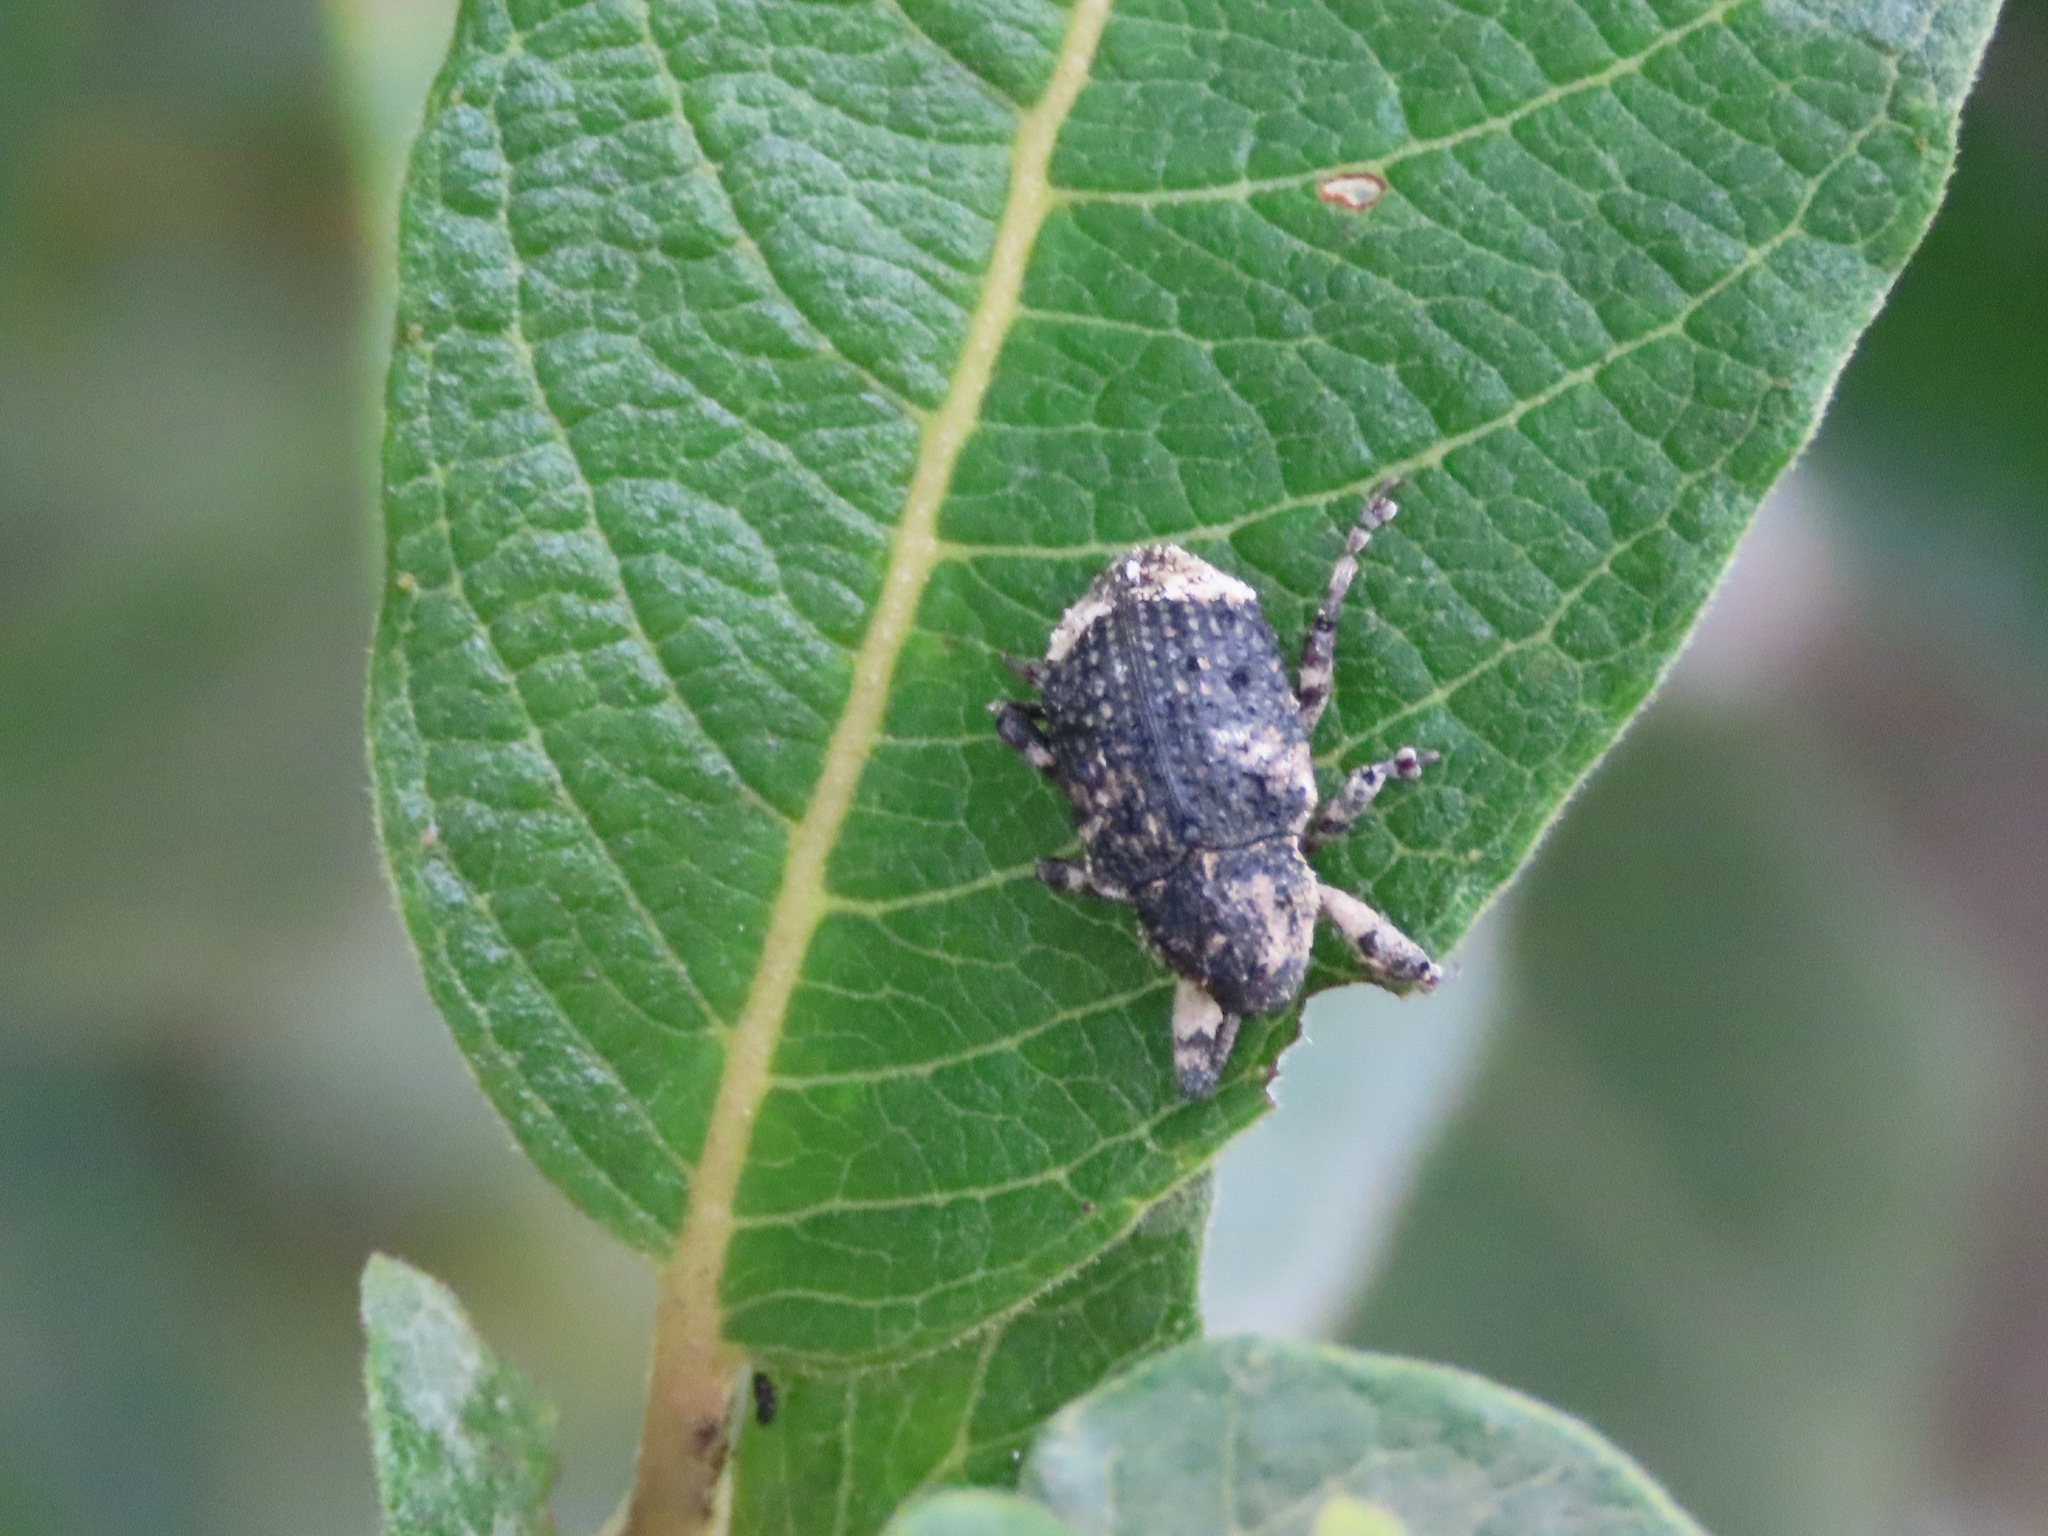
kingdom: Animalia
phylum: Arthropoda
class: Insecta
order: Coleoptera
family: Curculionidae
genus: Cryptorhynchus
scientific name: Cryptorhynchus lapathi
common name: Weevil
